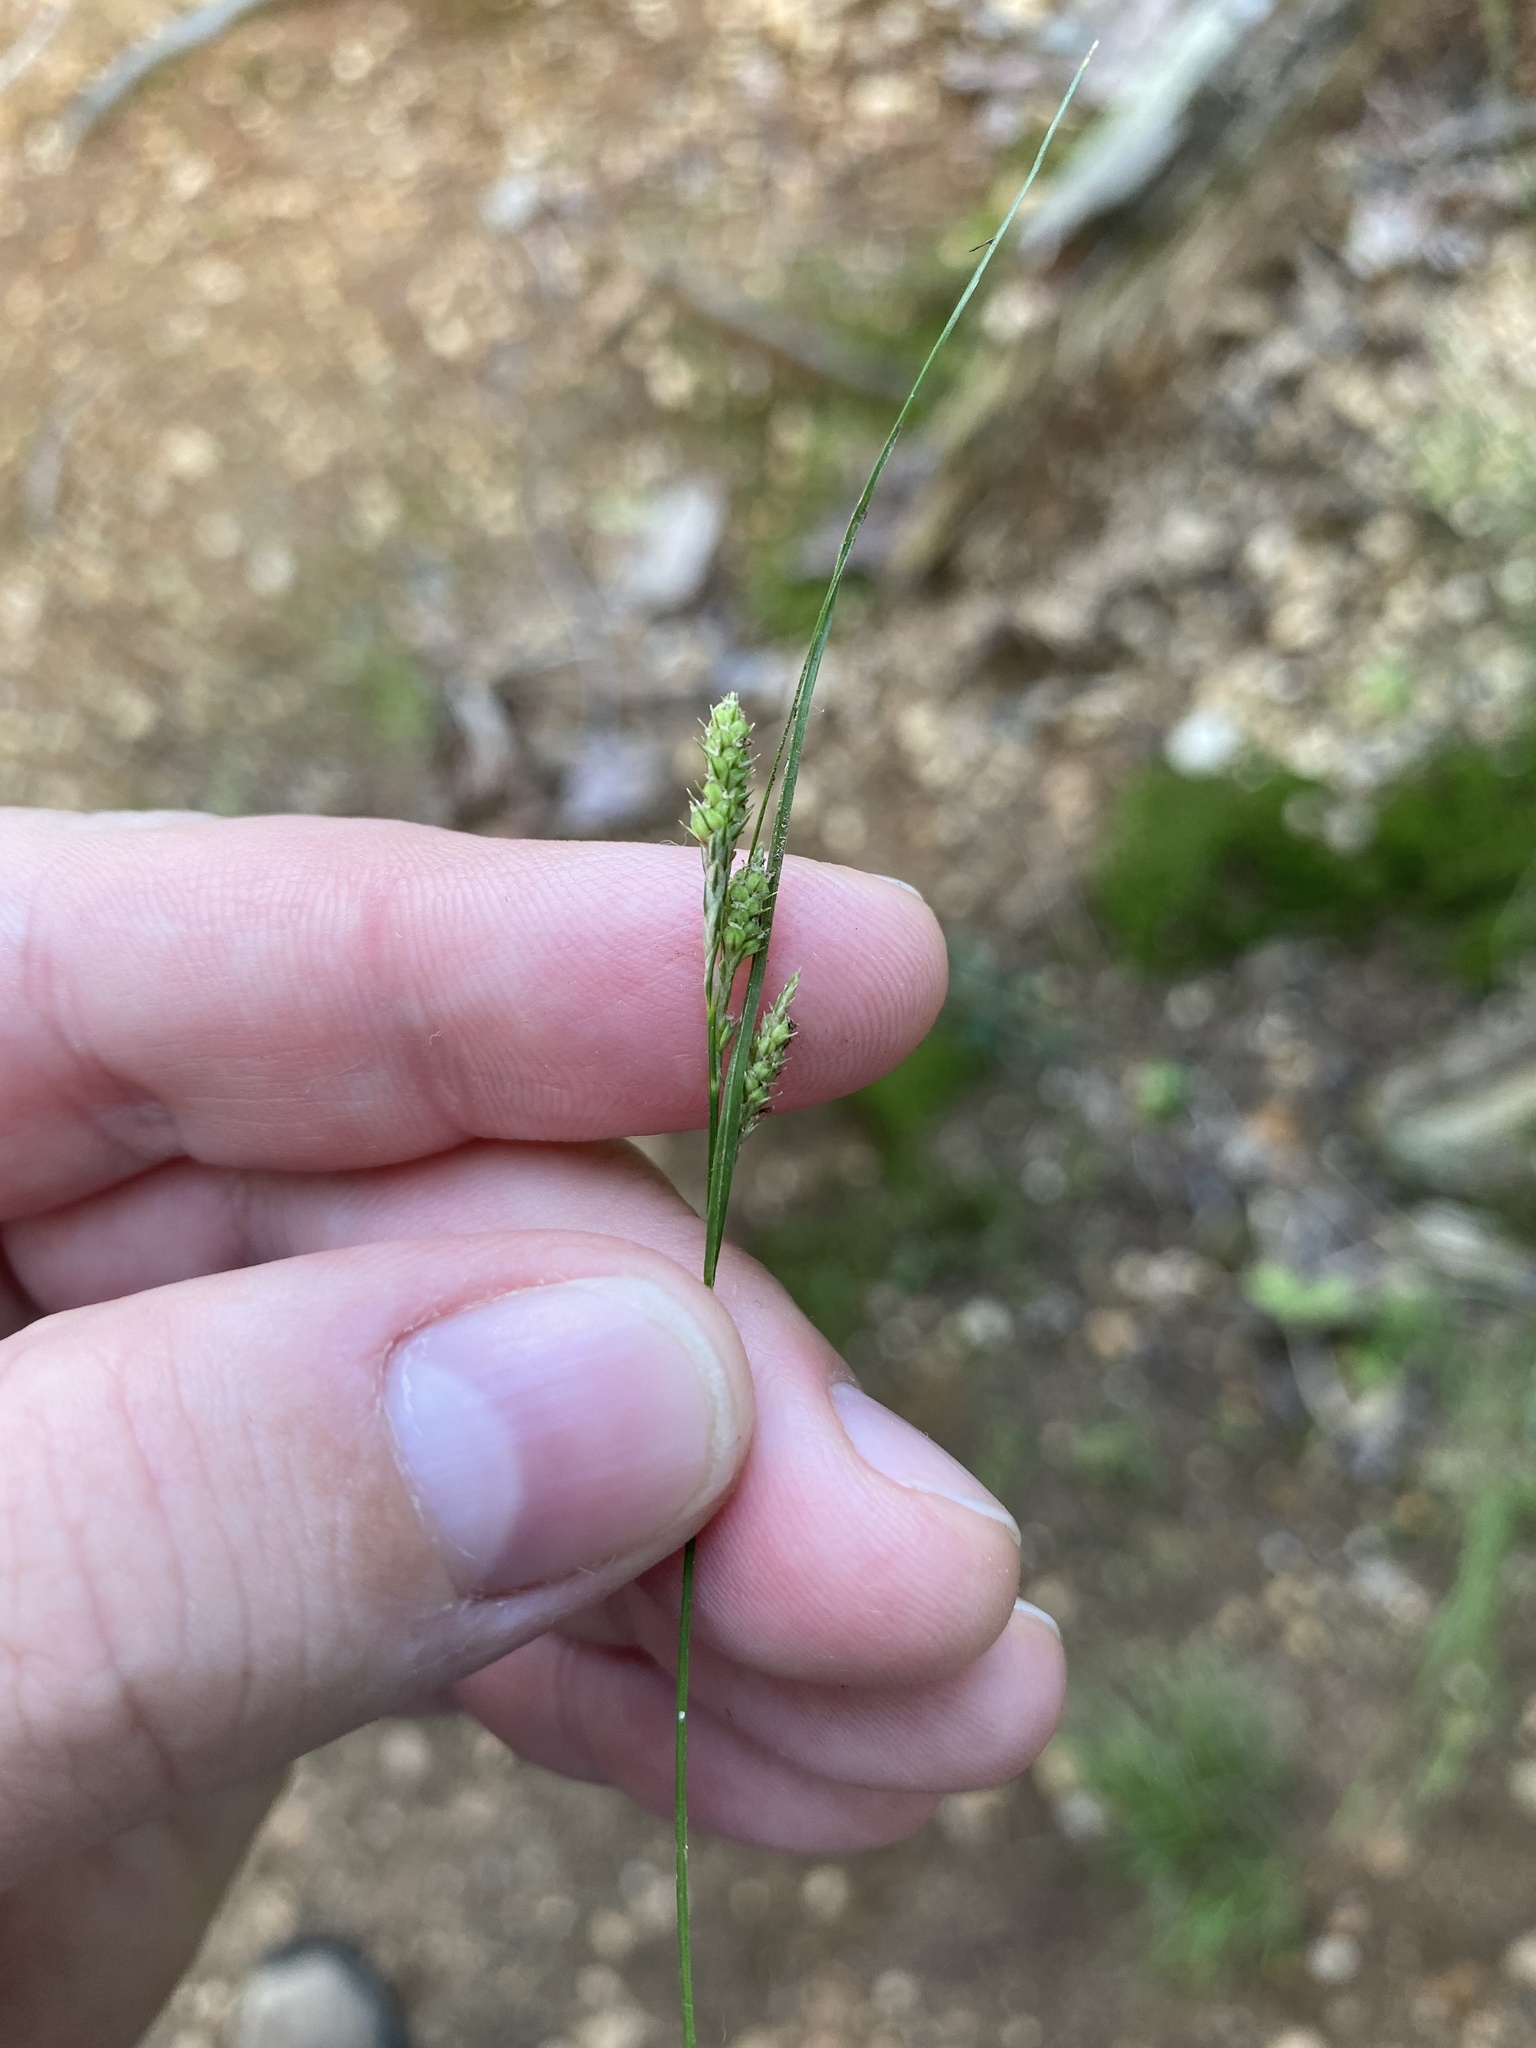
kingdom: Plantae
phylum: Tracheophyta
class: Liliopsida
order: Poales
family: Cyperaceae
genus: Carex
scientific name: Carex virescens
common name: Ribbed sedge
